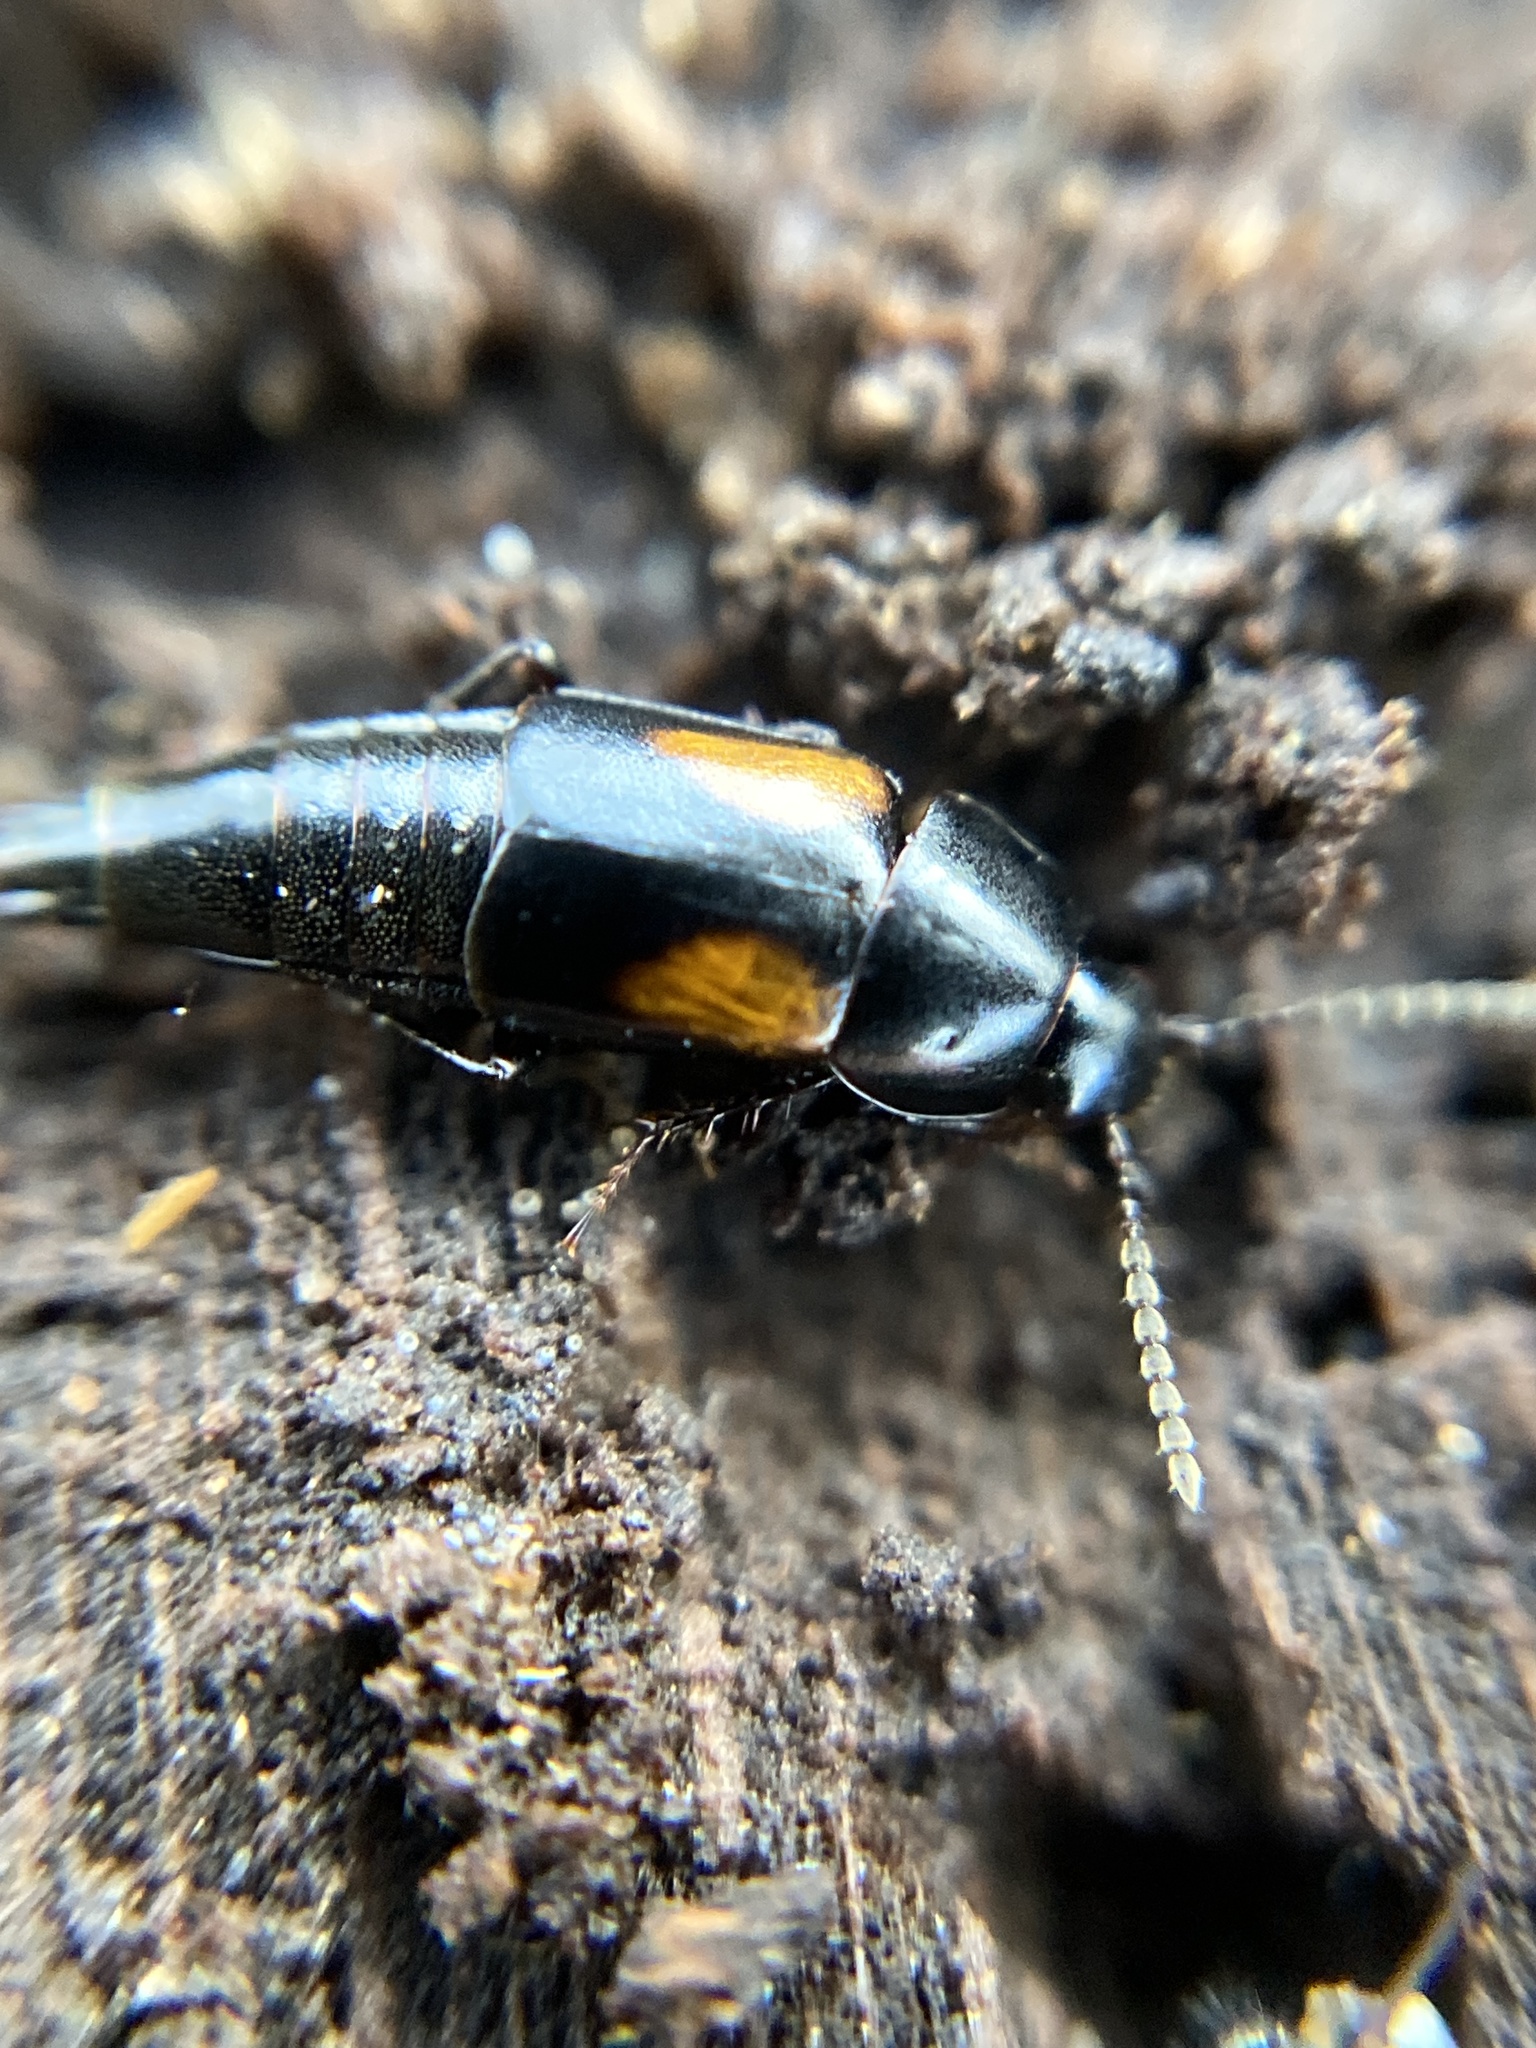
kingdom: Animalia
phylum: Arthropoda
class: Insecta
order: Coleoptera
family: Staphylinidae
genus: Tachinus
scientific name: Tachinus subterraneus
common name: Staph beetle
